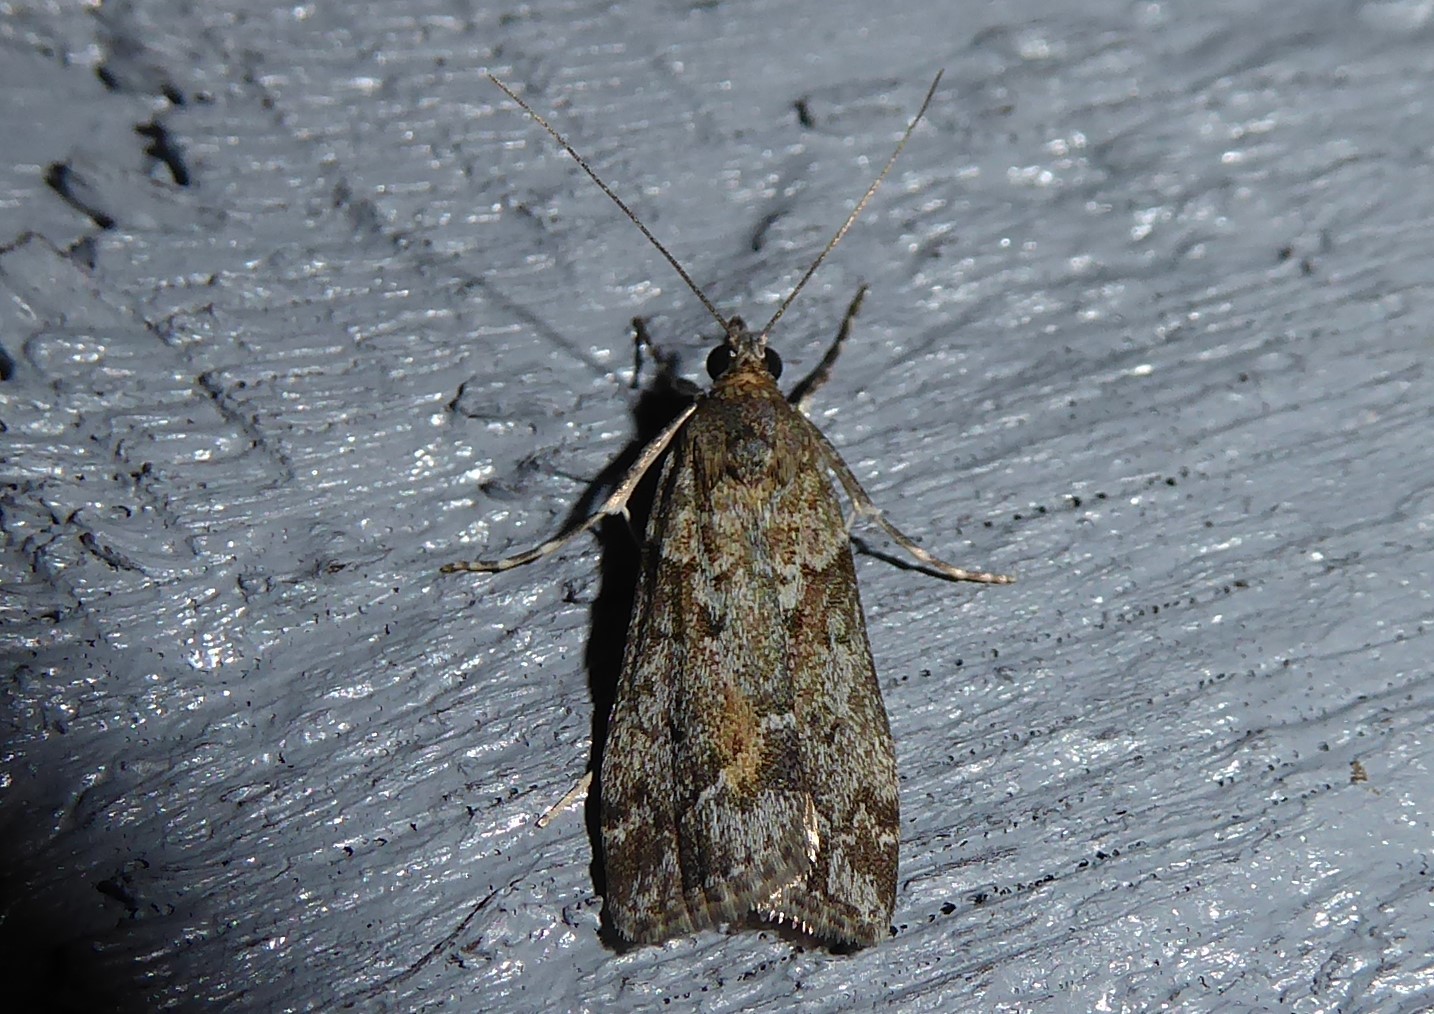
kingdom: Animalia
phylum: Arthropoda
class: Insecta
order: Lepidoptera
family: Crambidae
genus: Eudonia
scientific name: Eudonia submarginalis
